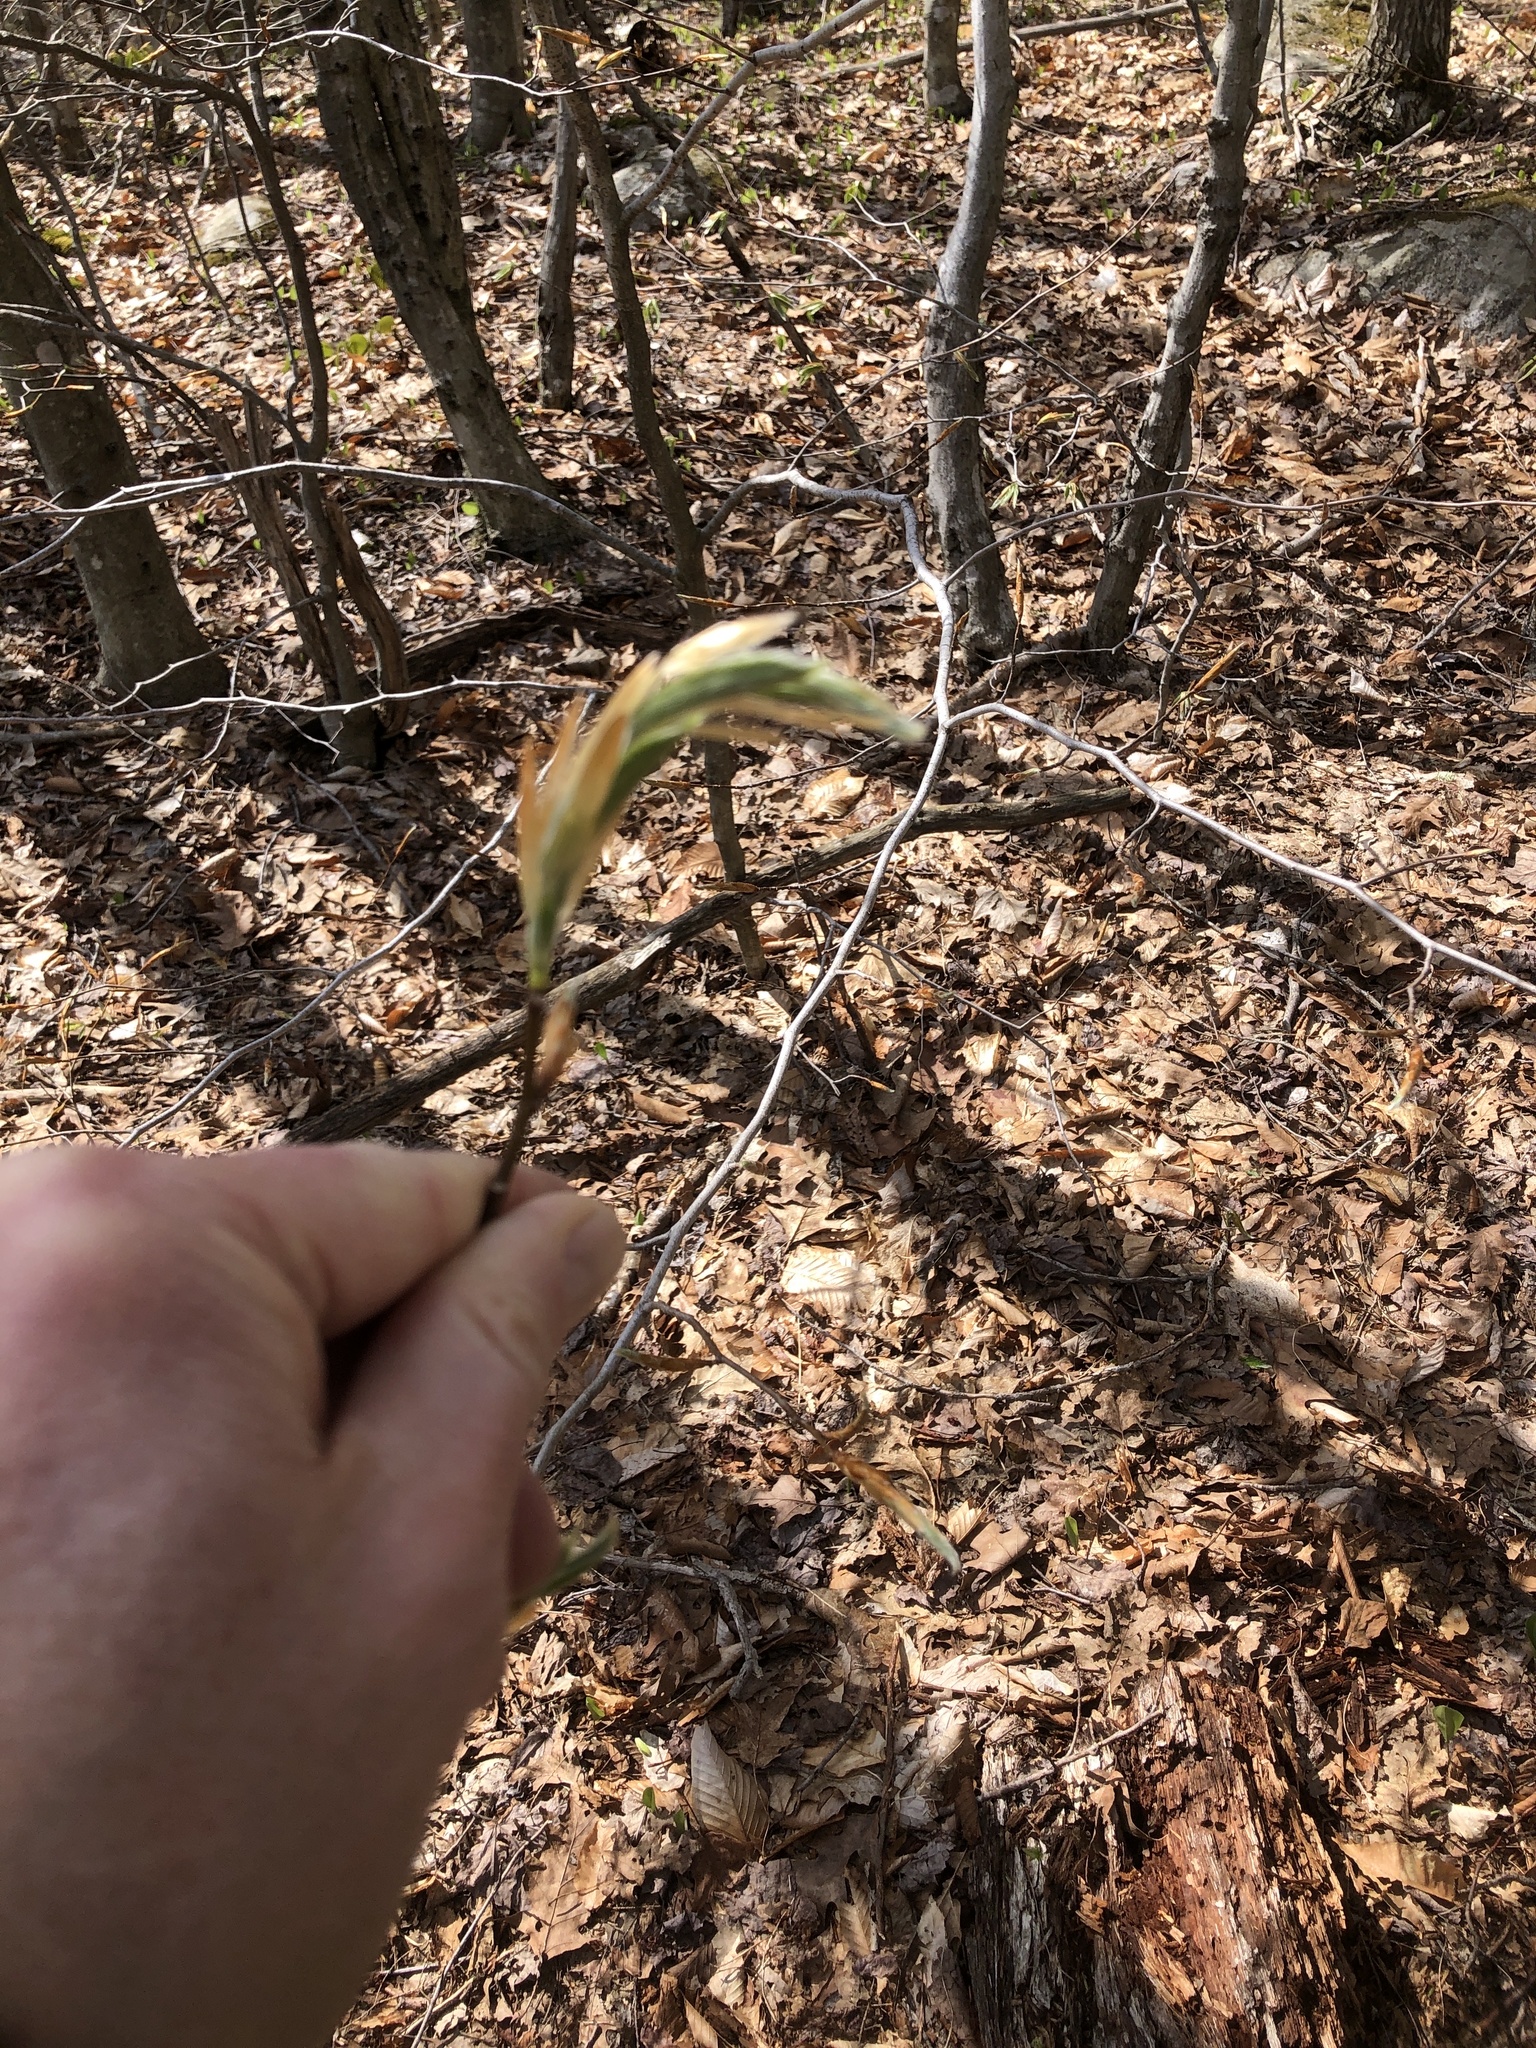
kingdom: Plantae
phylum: Tracheophyta
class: Magnoliopsida
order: Fagales
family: Fagaceae
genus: Fagus
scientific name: Fagus grandifolia
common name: American beech
